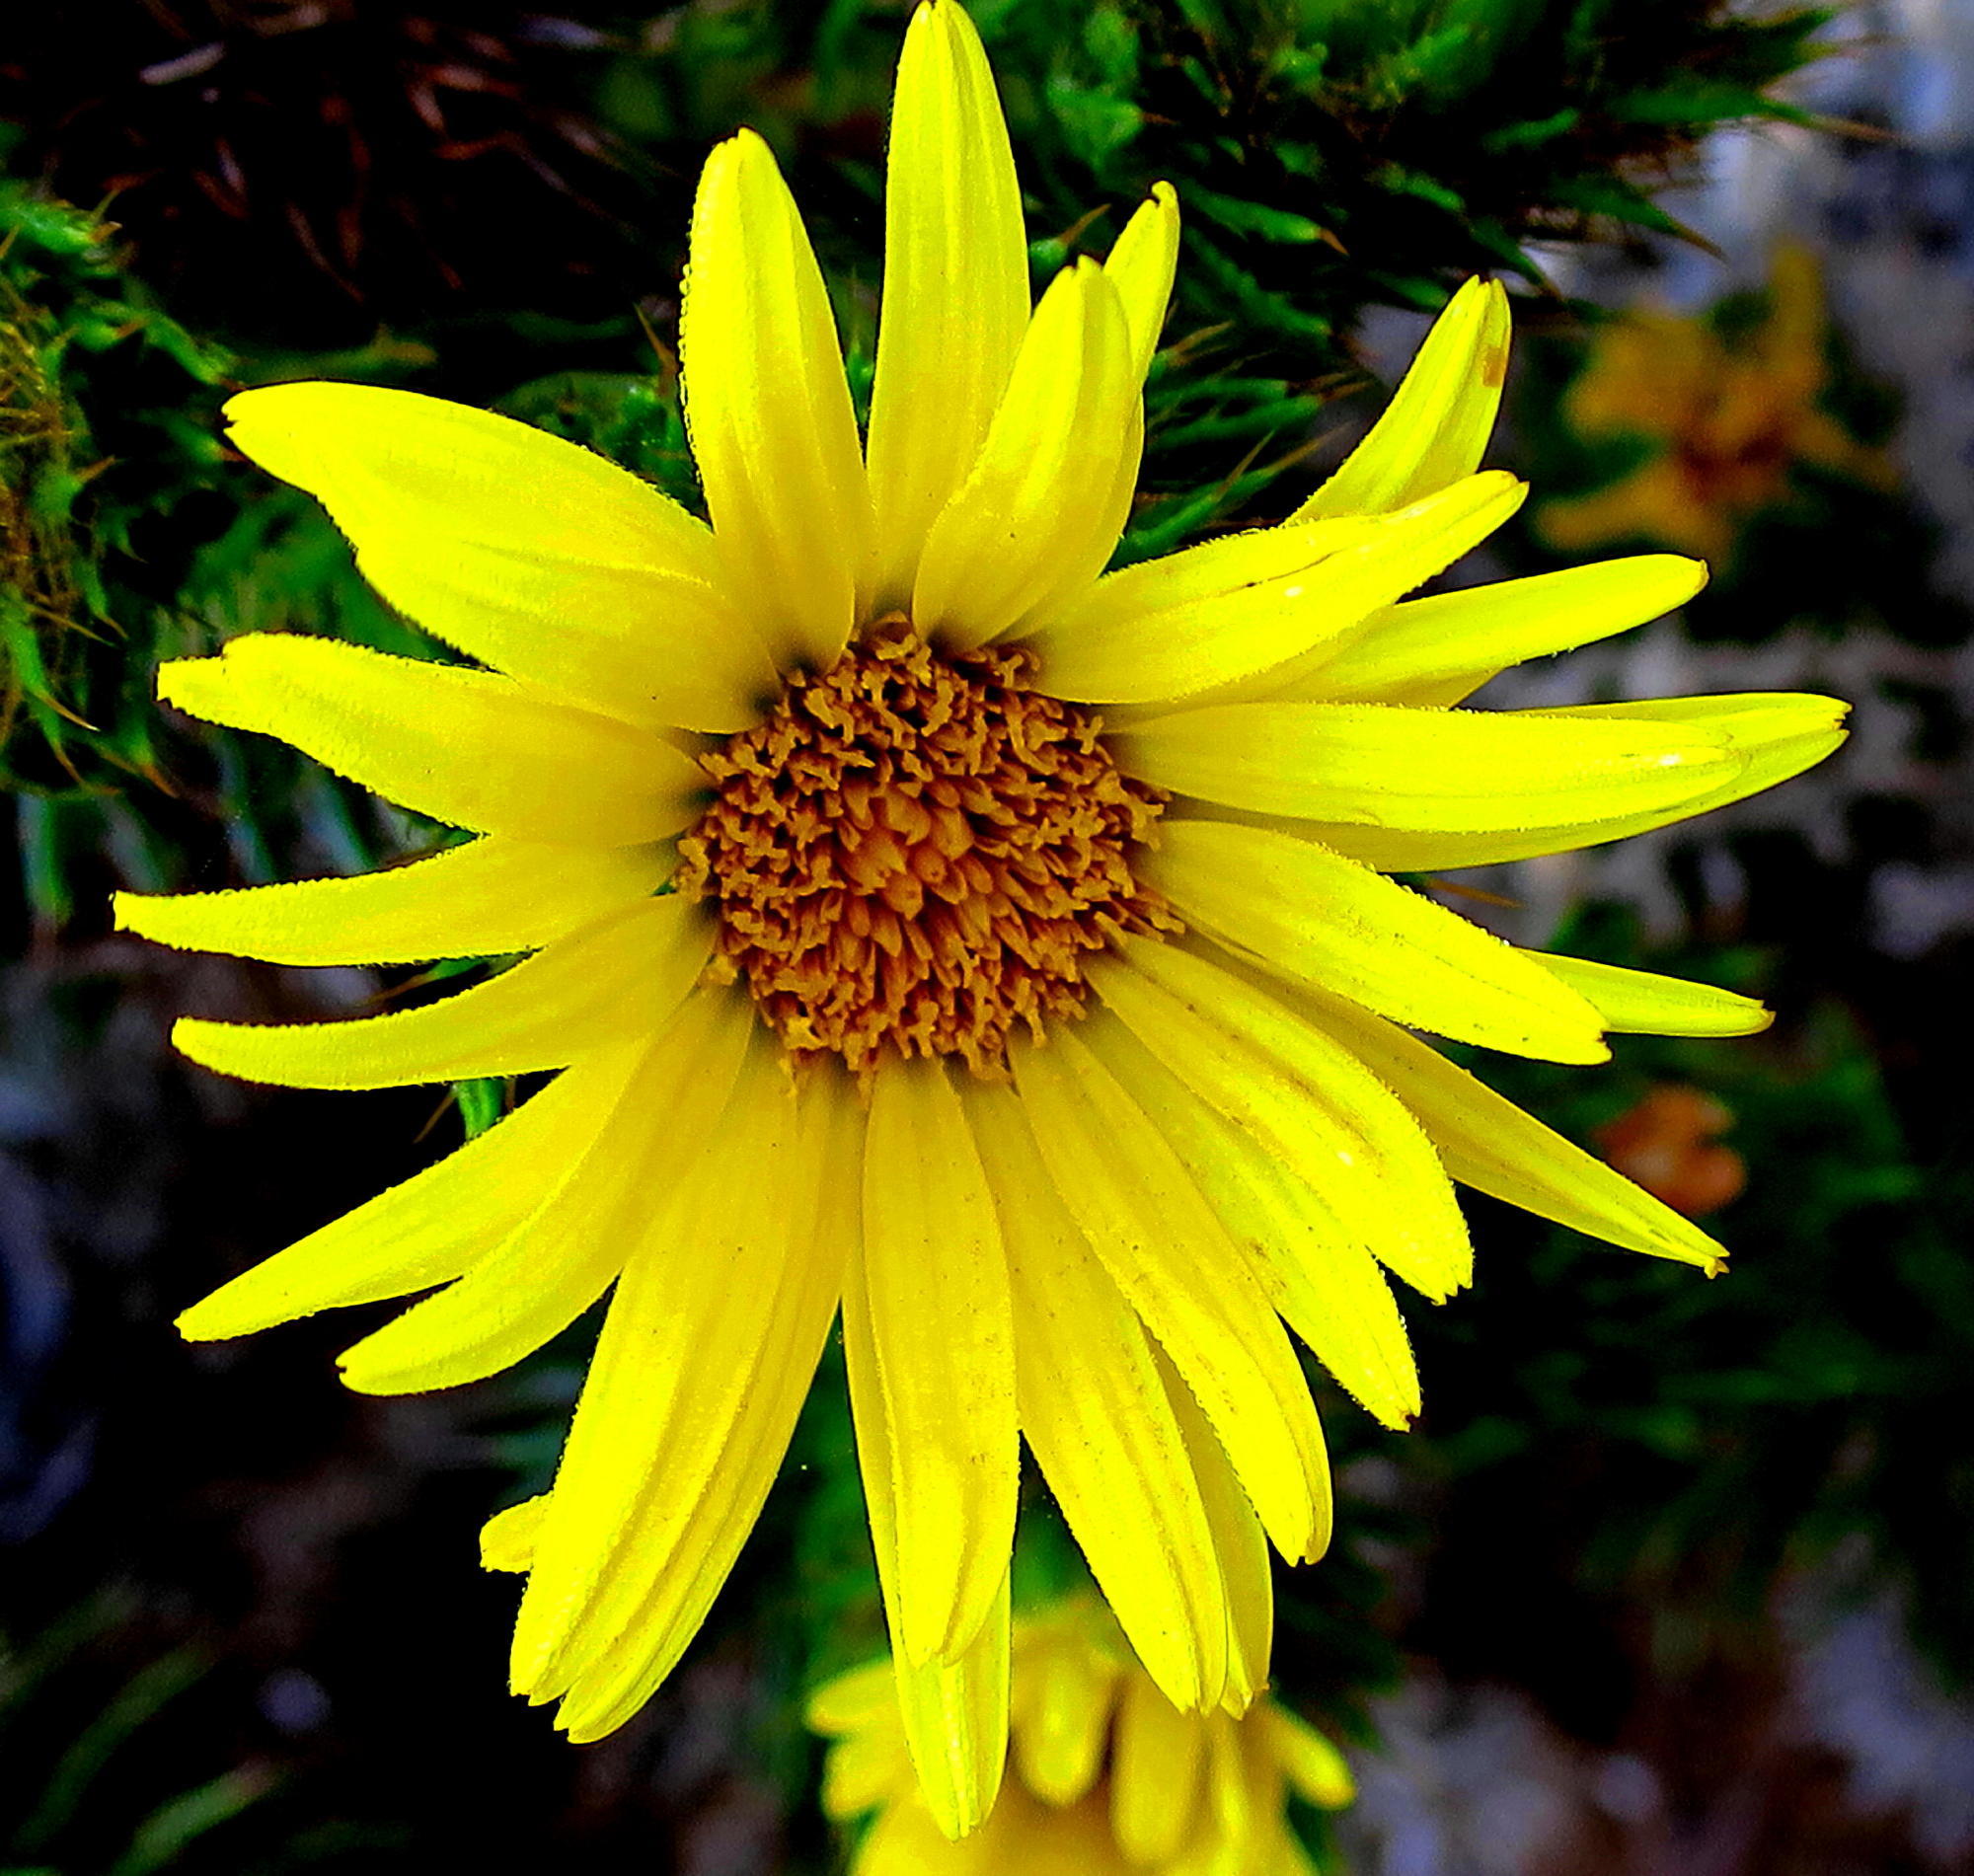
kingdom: Plantae
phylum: Tracheophyta
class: Magnoliopsida
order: Asterales
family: Asteraceae
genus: Cullumia
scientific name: Cullumia carlinoides
